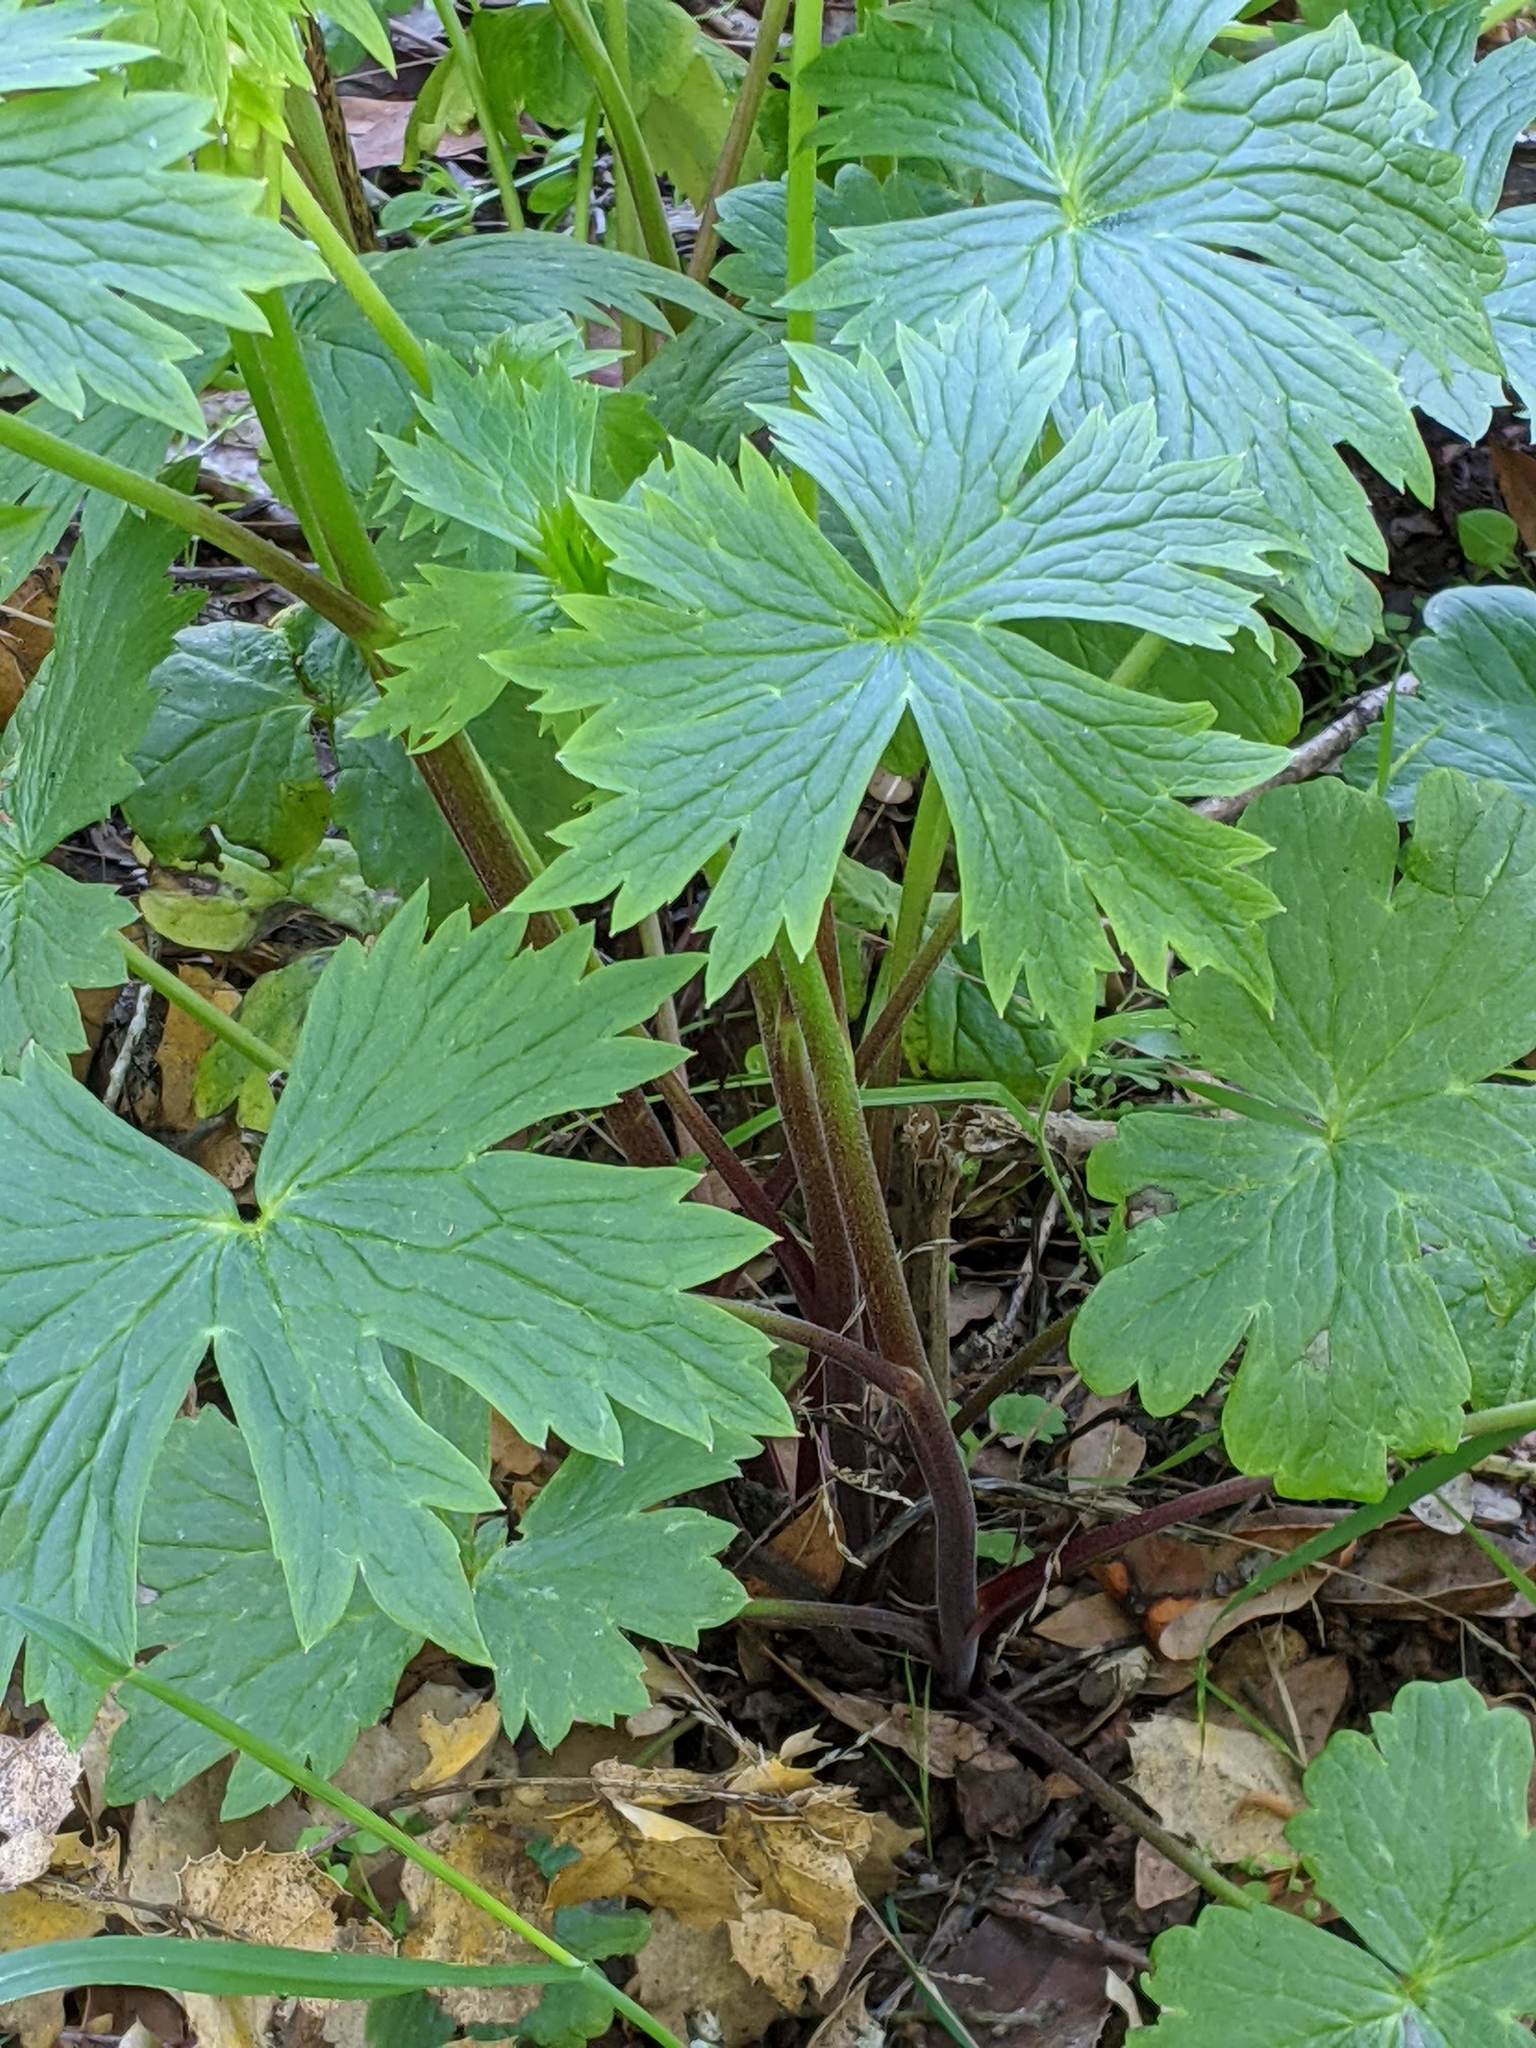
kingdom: Plantae
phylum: Tracheophyta
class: Magnoliopsida
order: Ranunculales
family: Ranunculaceae
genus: Delphinium
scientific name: Delphinium californicum
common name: California larkspur
